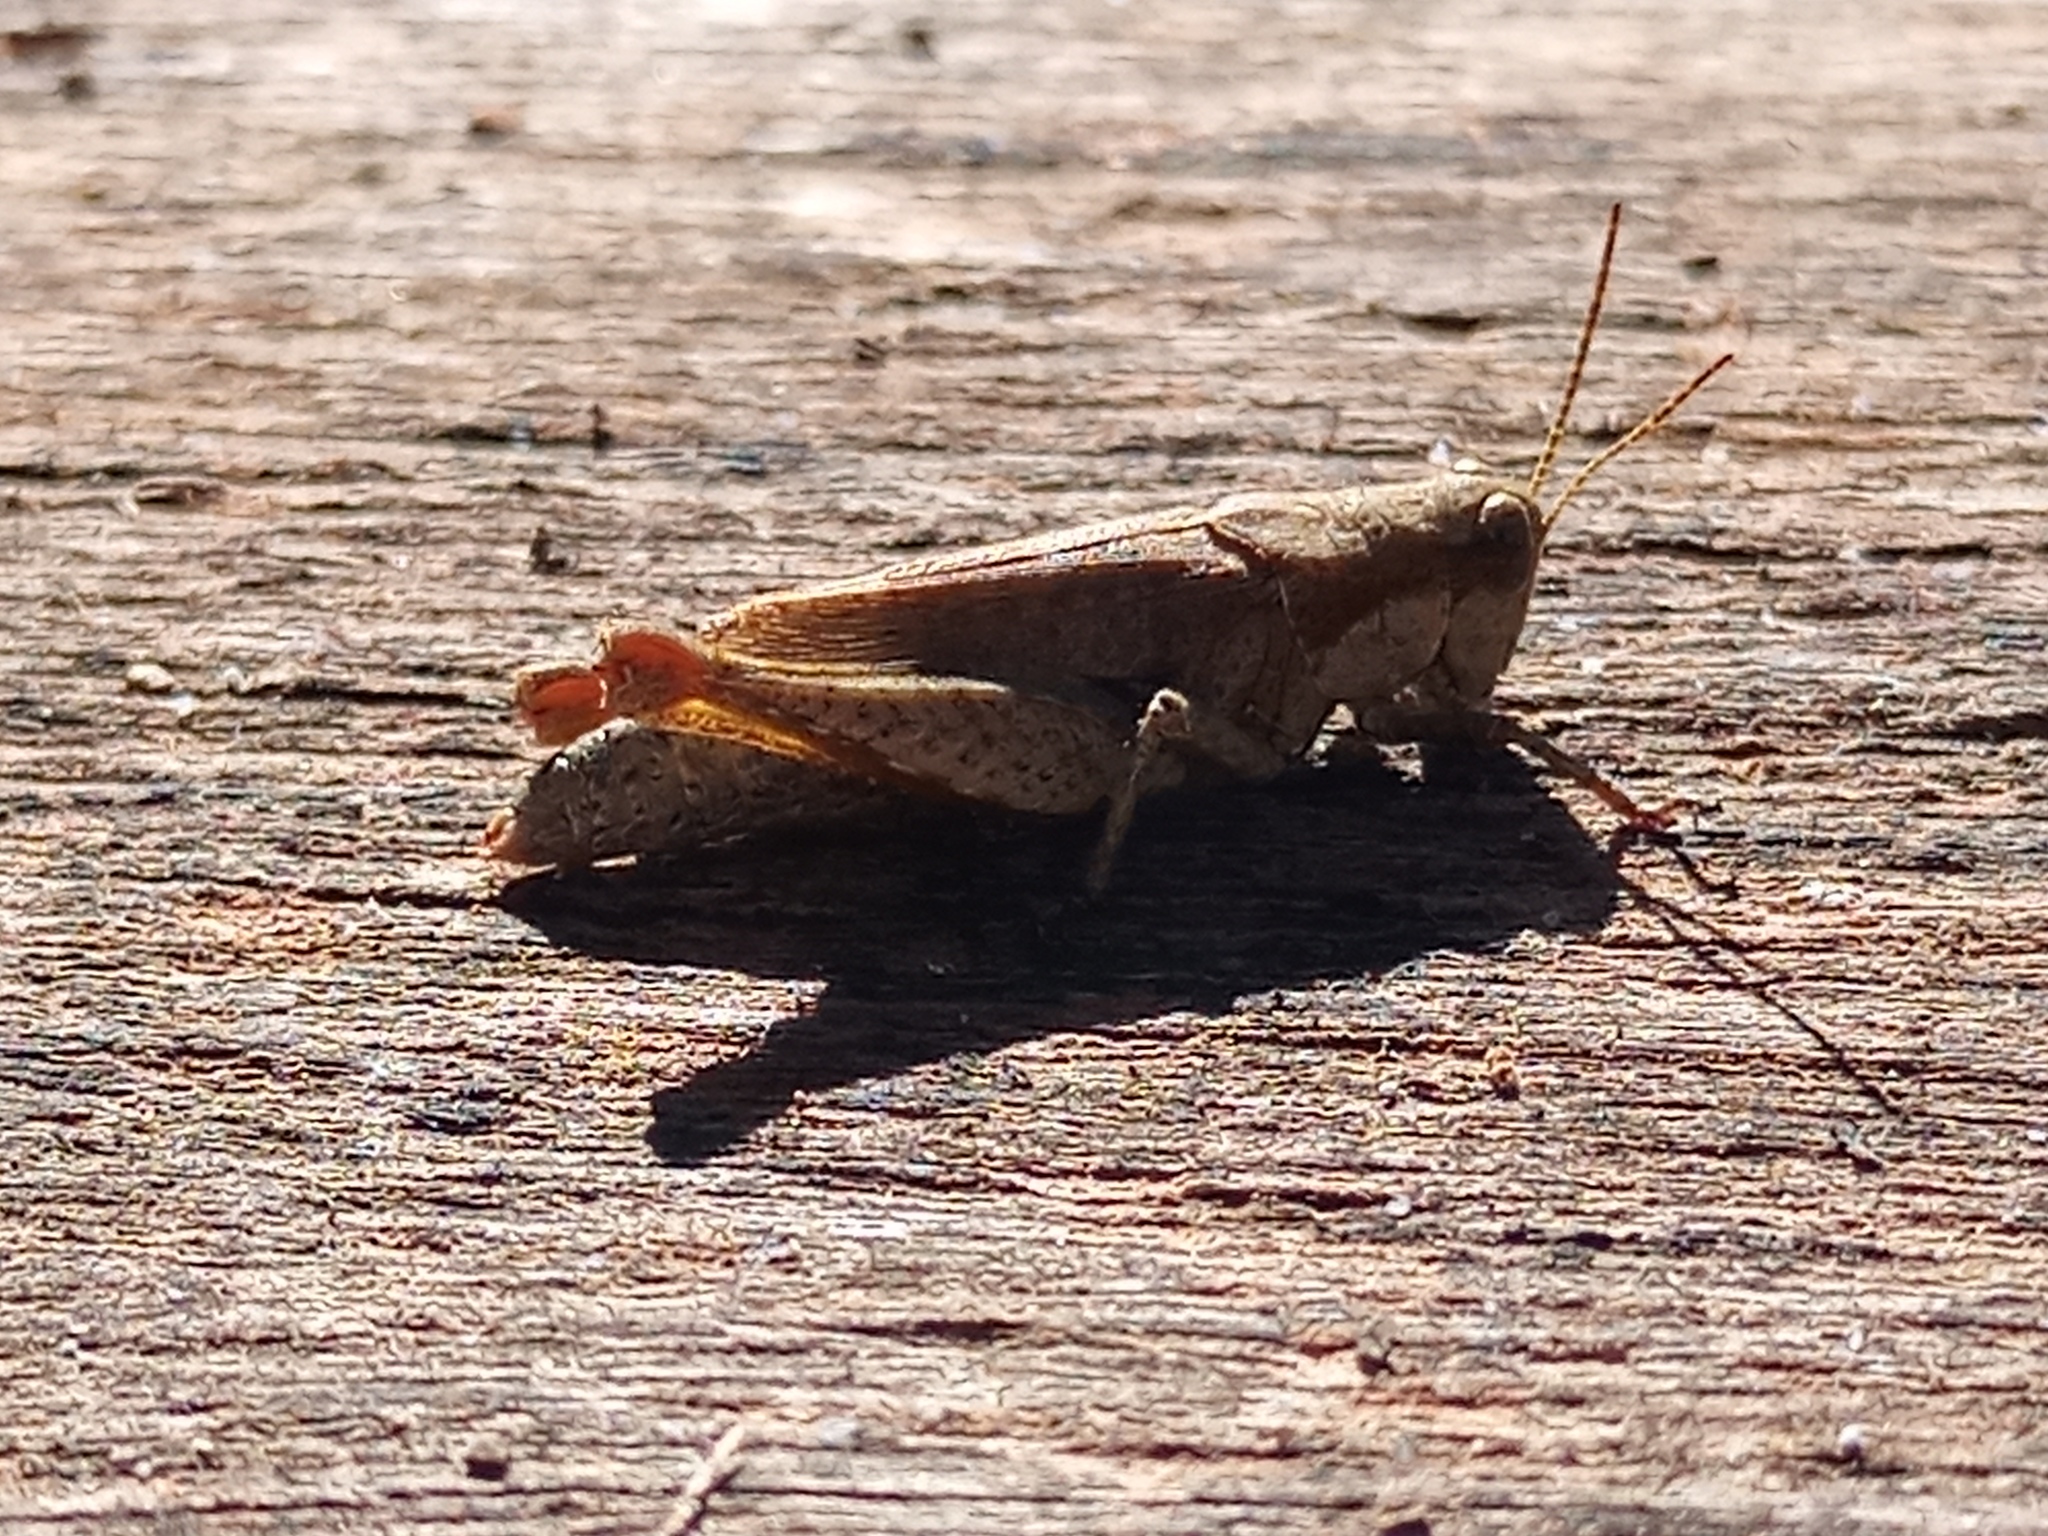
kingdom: Animalia
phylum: Arthropoda
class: Insecta
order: Orthoptera
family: Acrididae
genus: Ronderosia
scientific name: Ronderosia bergii
